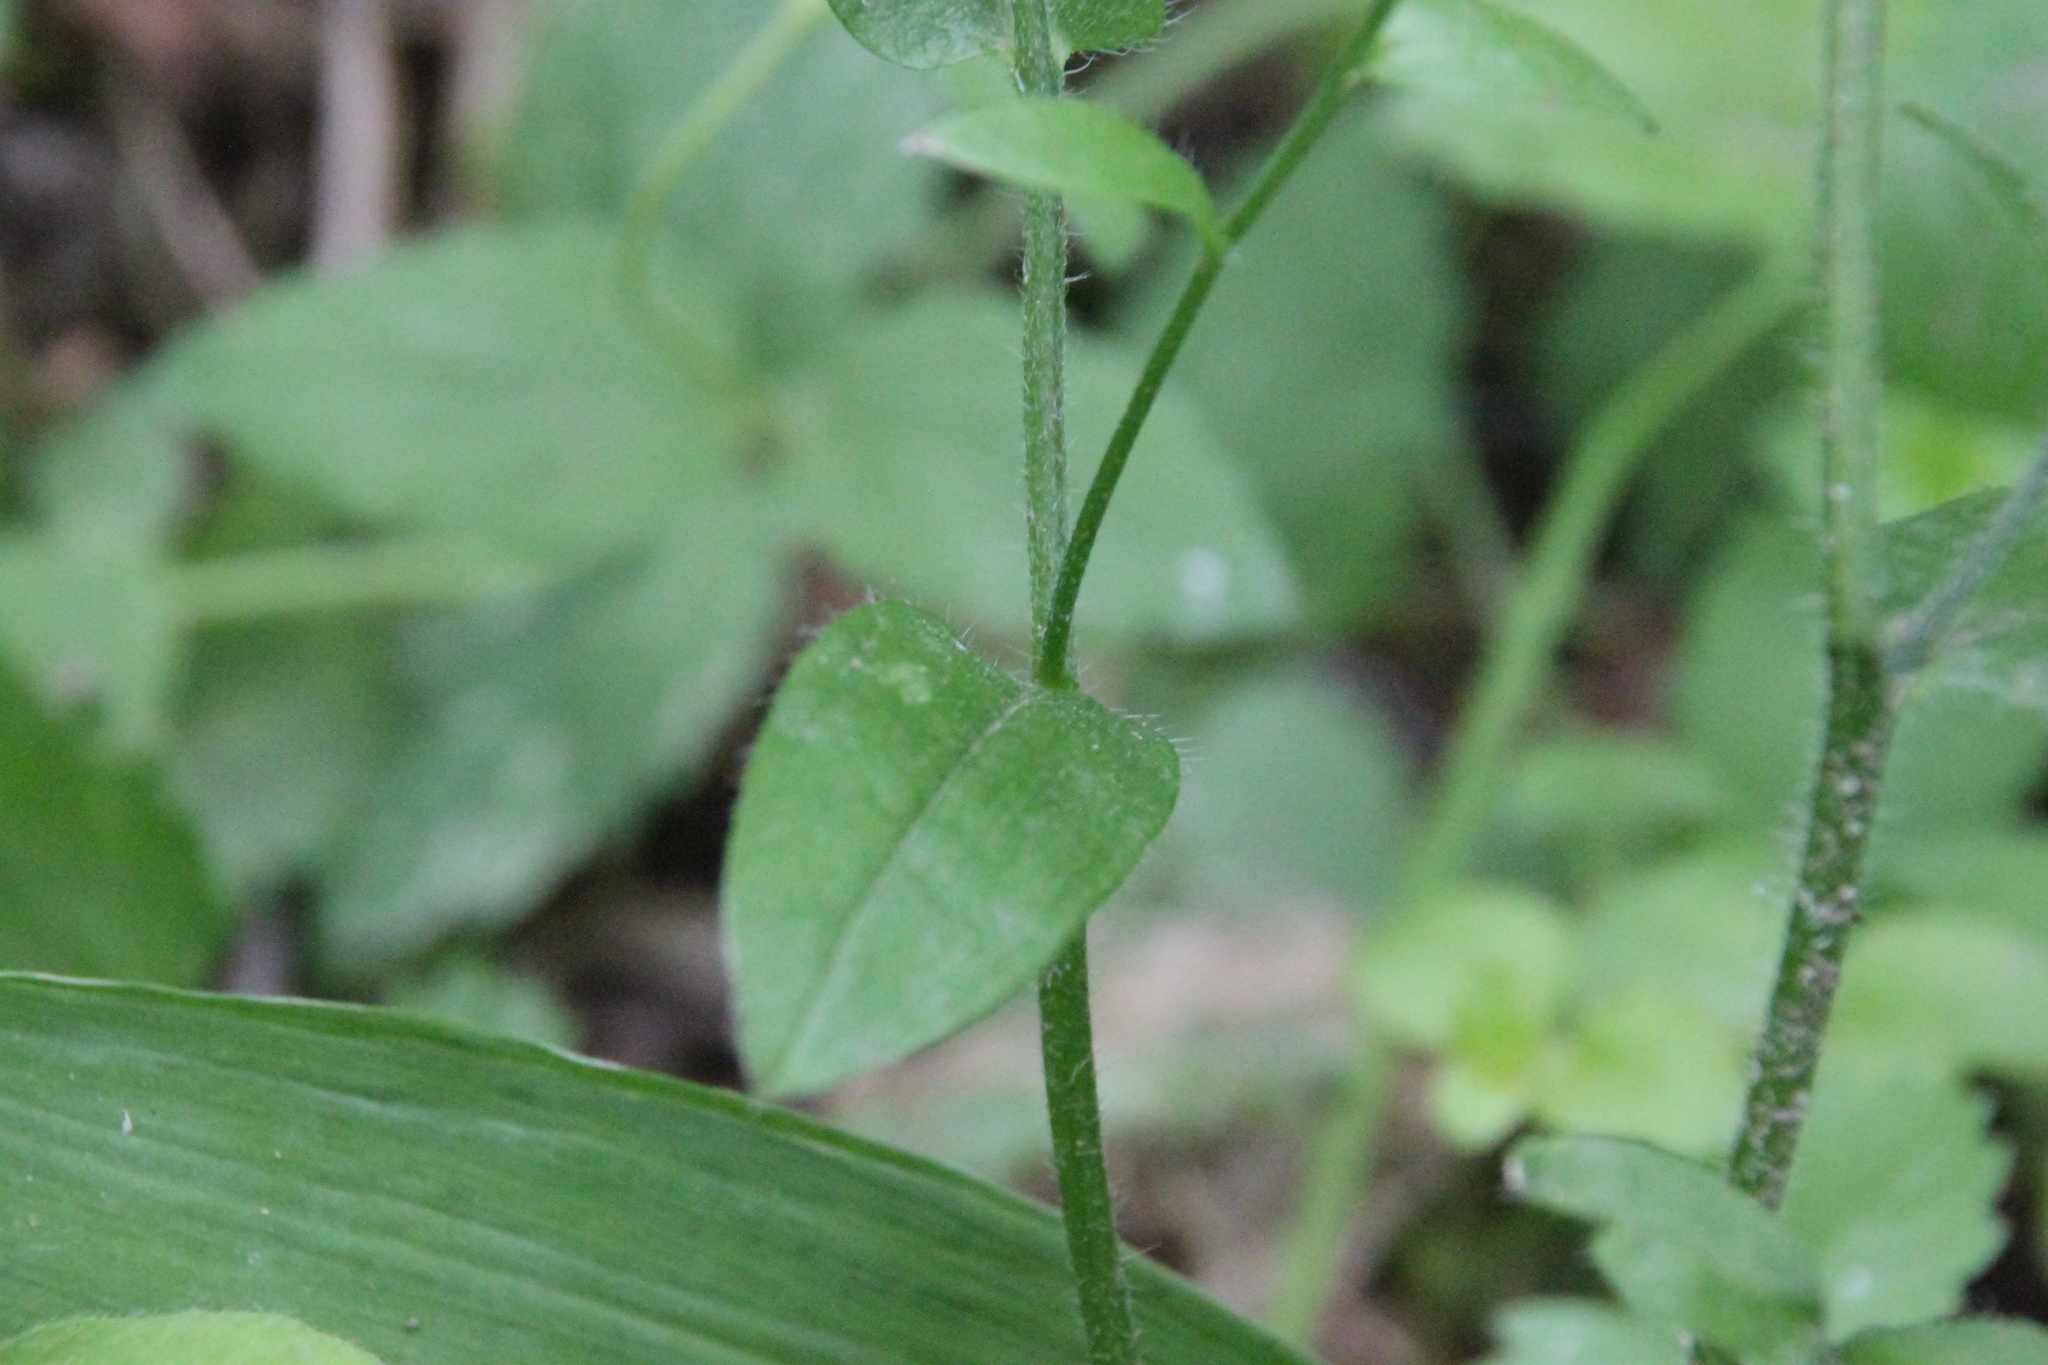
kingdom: Plantae
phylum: Tracheophyta
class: Magnoliopsida
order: Boraginales
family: Boraginaceae
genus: Myosotis
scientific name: Myosotis sylvatica
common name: Wood forget-me-not
